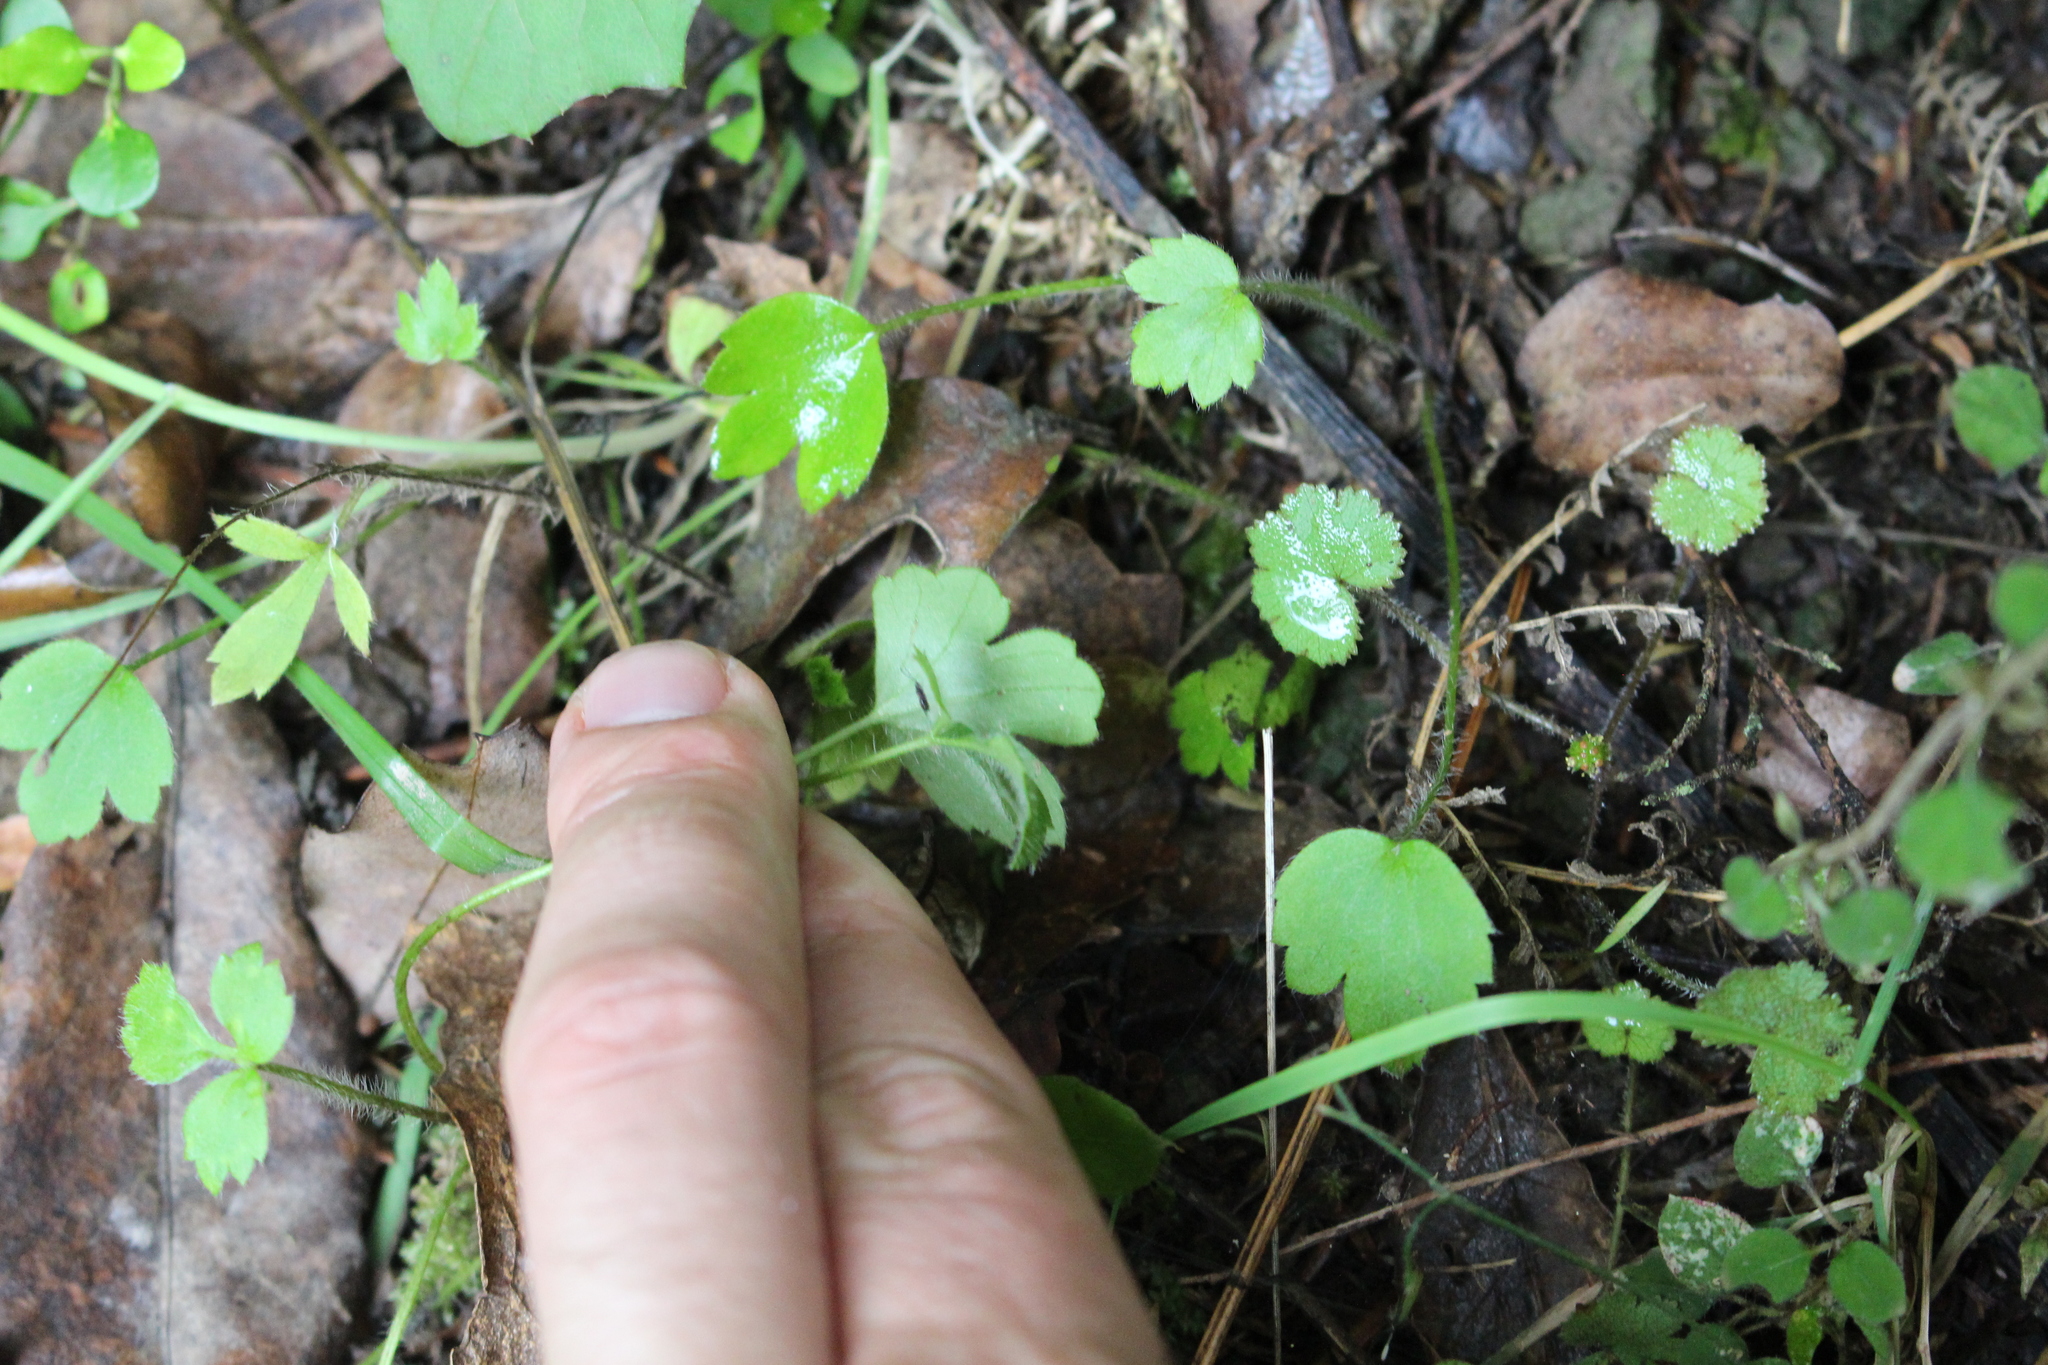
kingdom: Plantae
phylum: Tracheophyta
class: Magnoliopsida
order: Ranunculales
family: Ranunculaceae
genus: Ranunculus
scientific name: Ranunculus reflexus
